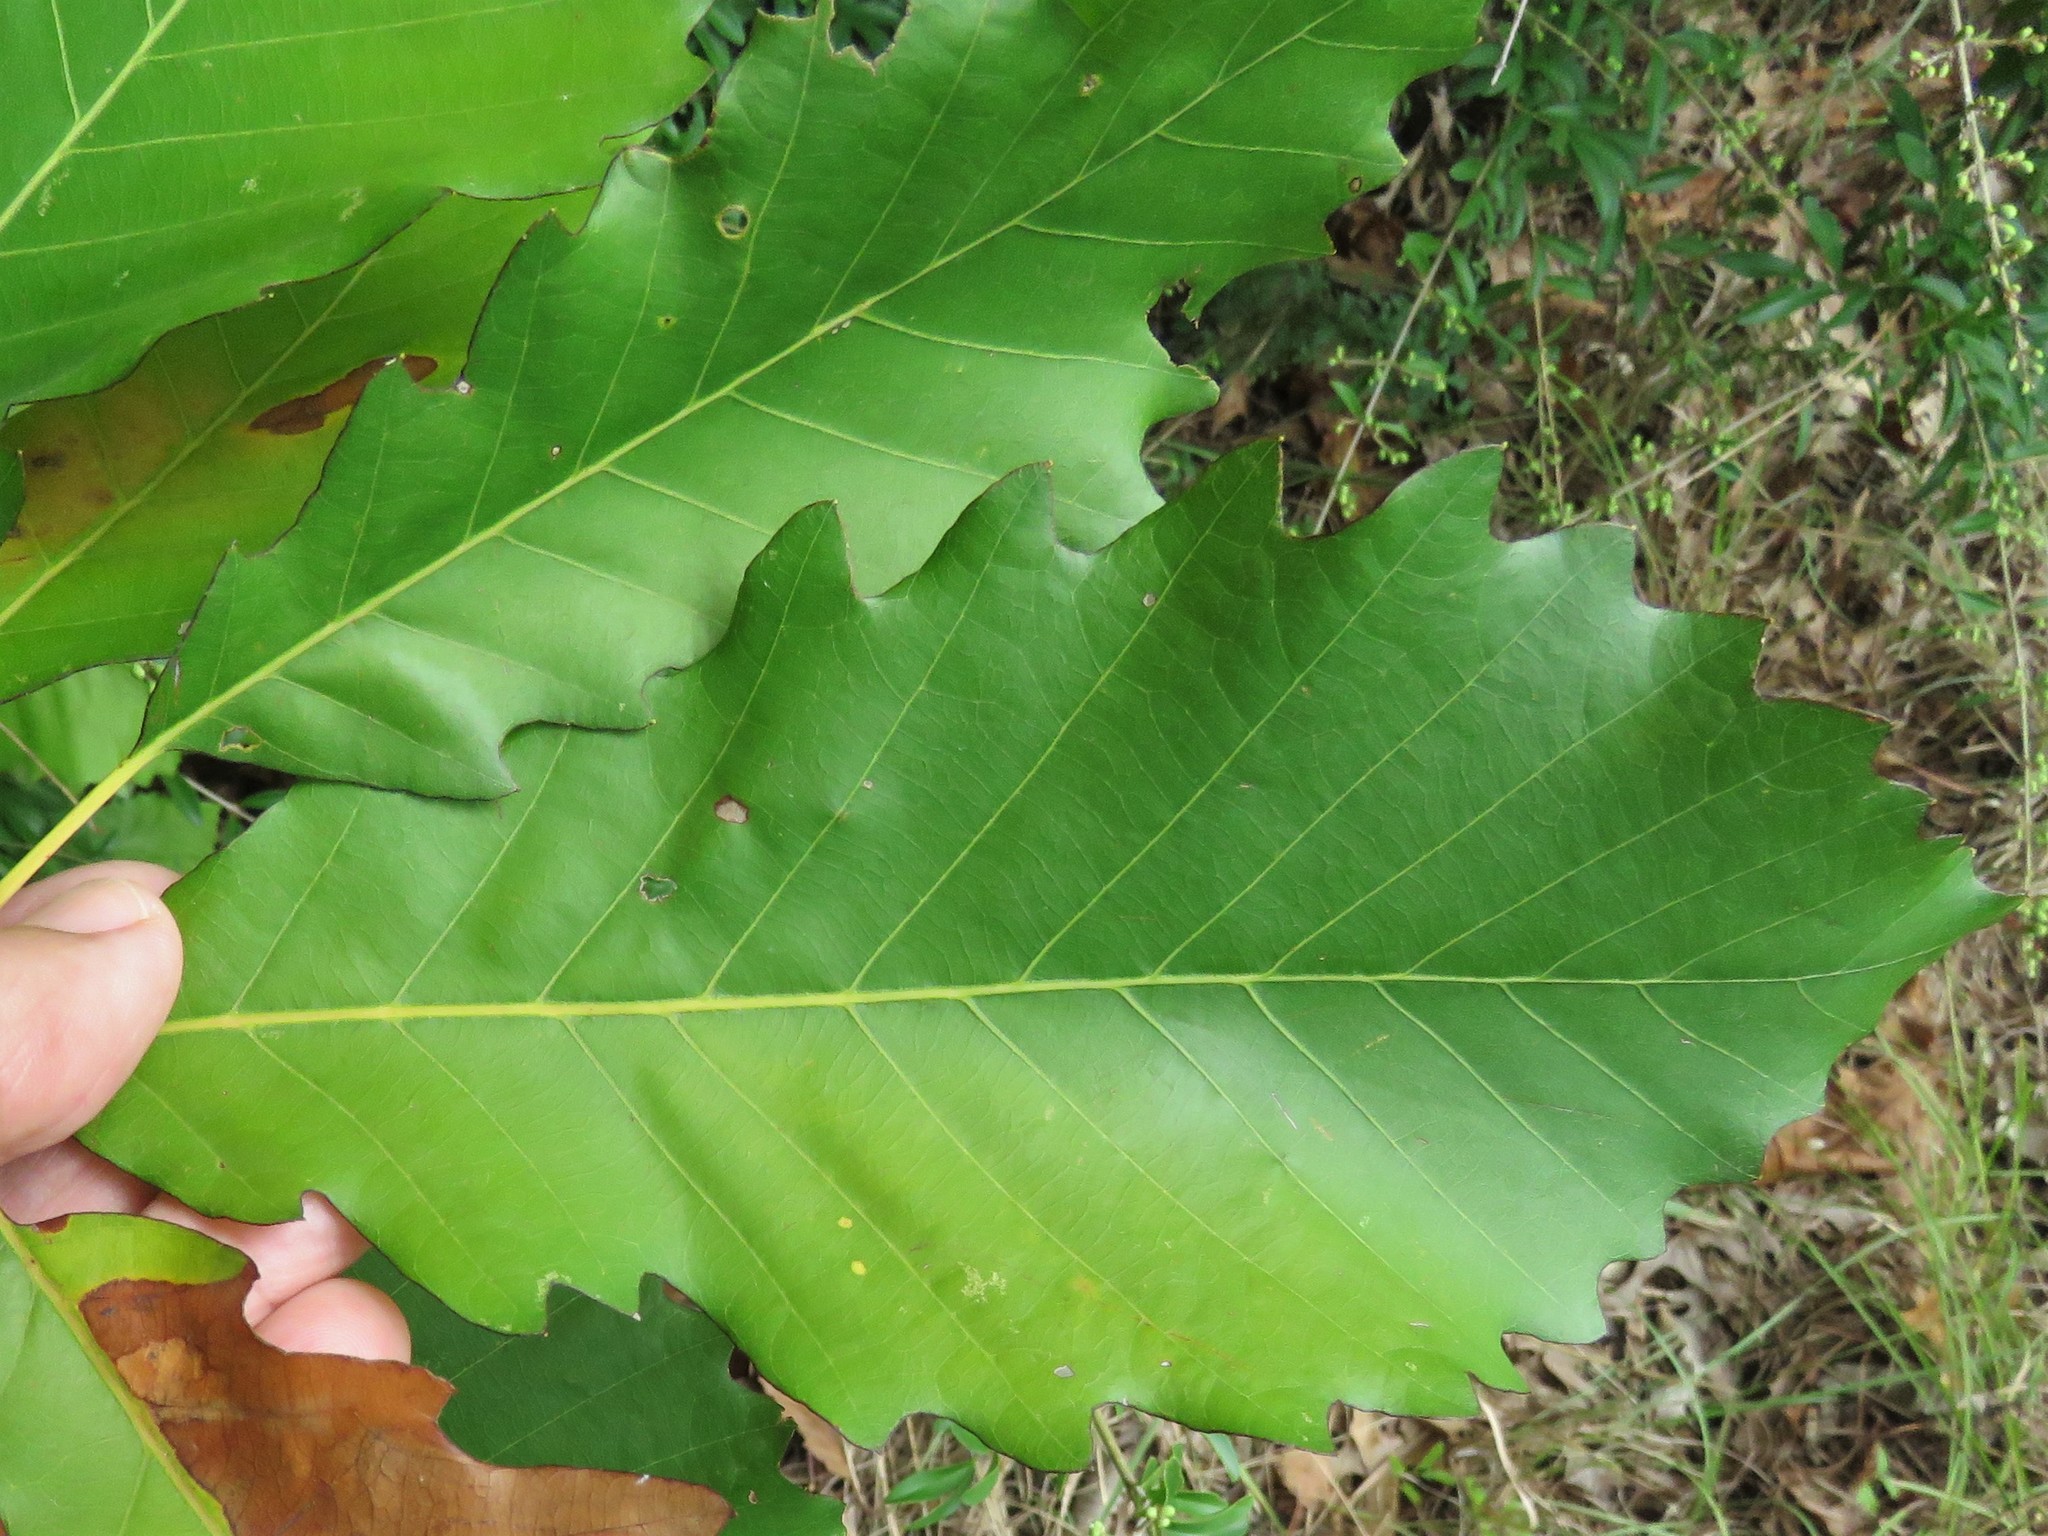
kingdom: Plantae
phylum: Tracheophyta
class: Magnoliopsida
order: Fagales
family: Fagaceae
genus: Quercus
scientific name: Quercus muehlenbergii
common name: Chinkapin oak
